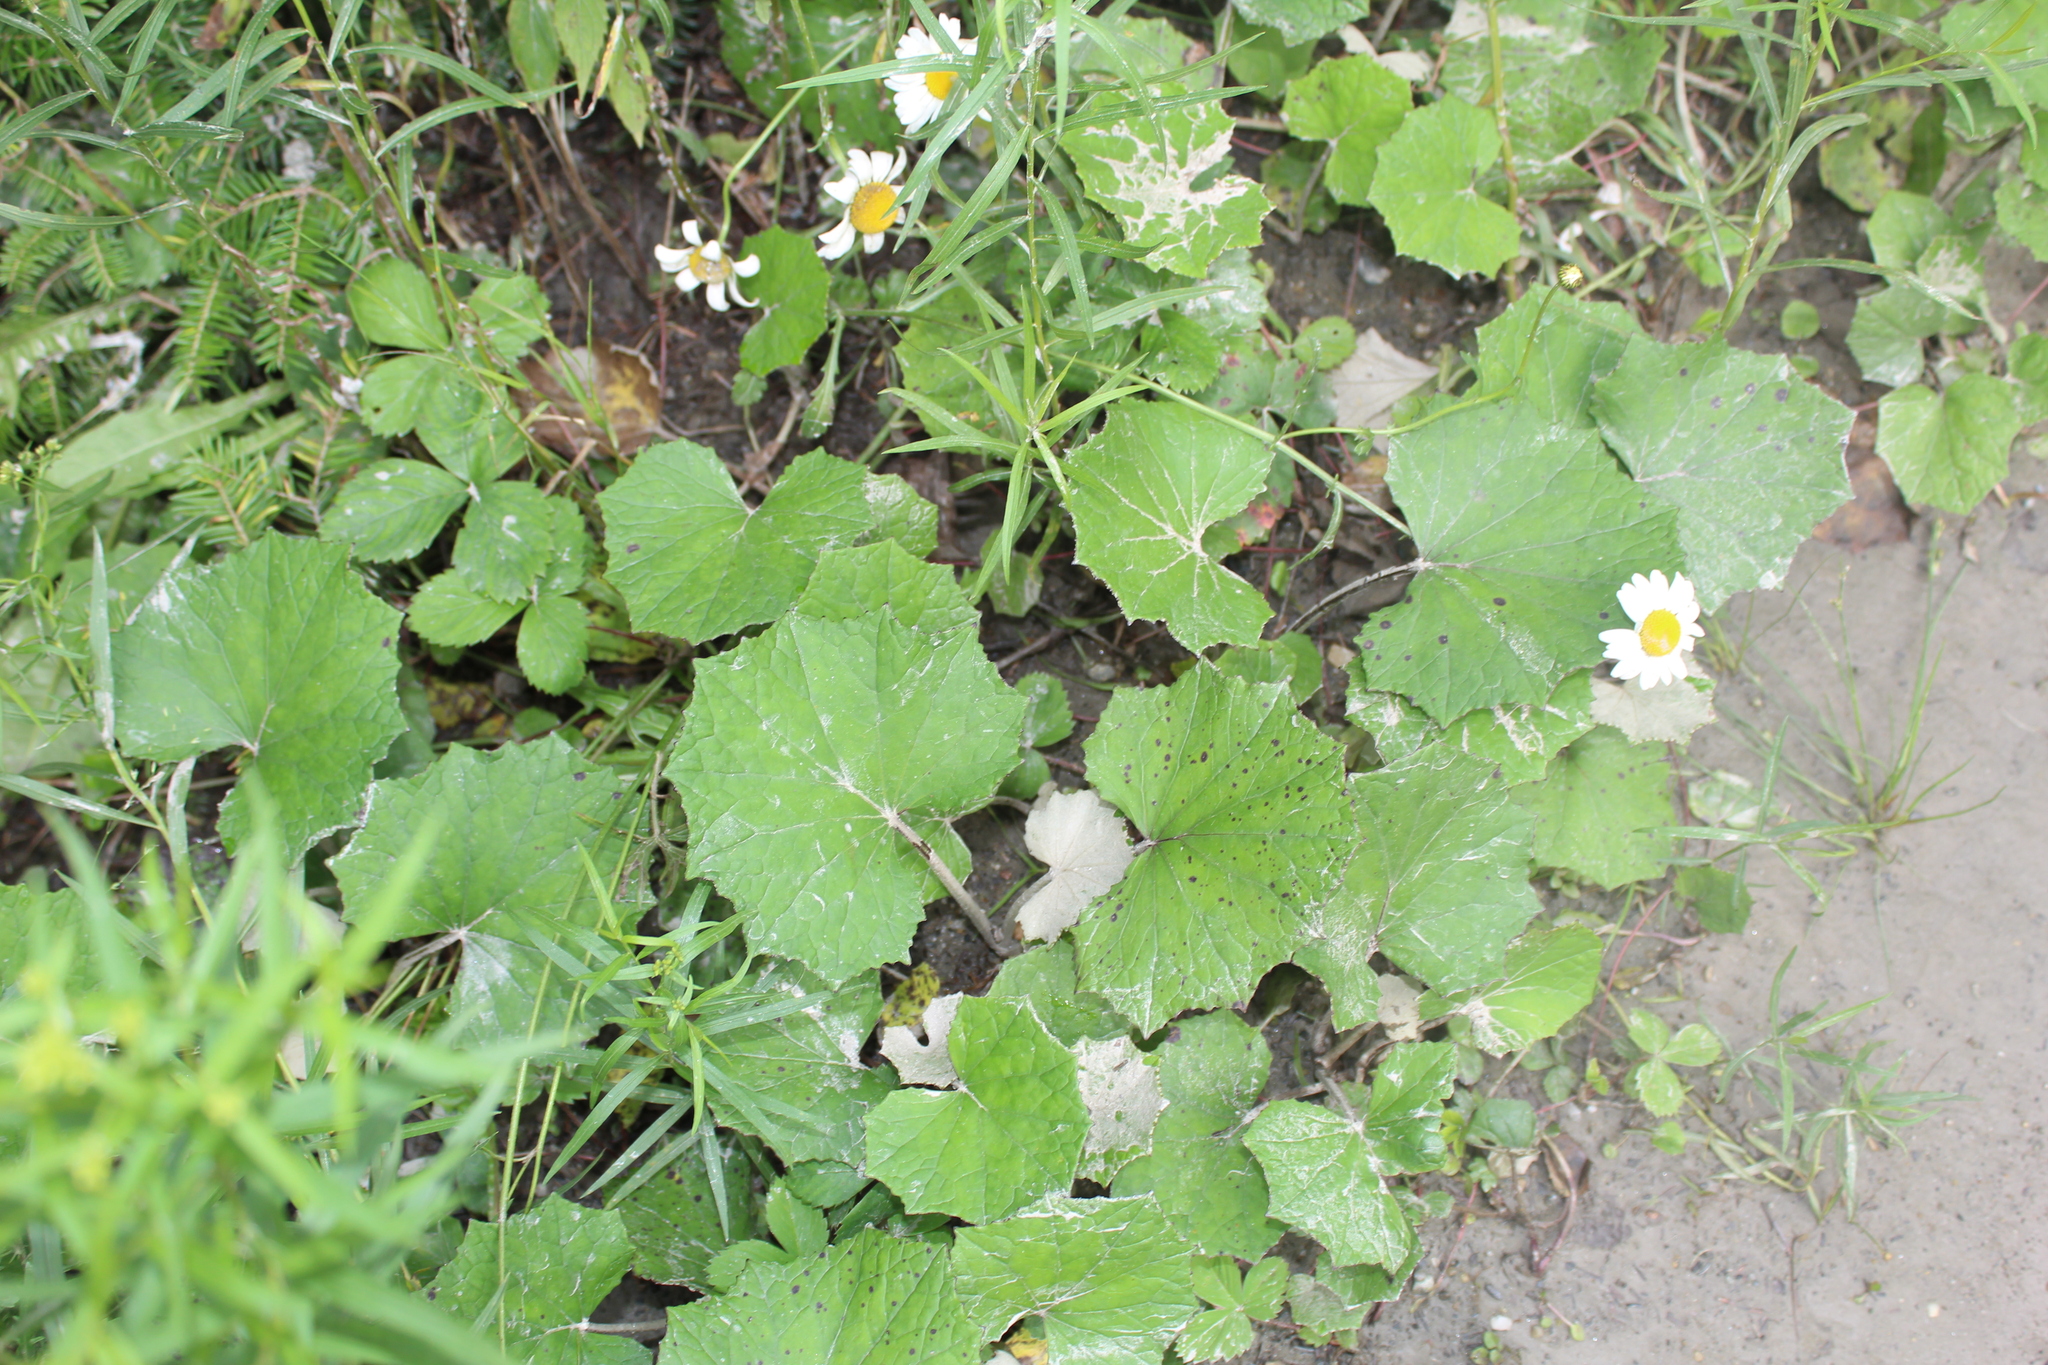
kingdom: Plantae
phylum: Tracheophyta
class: Magnoliopsida
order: Asterales
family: Asteraceae
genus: Tussilago
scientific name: Tussilago farfara
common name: Coltsfoot
